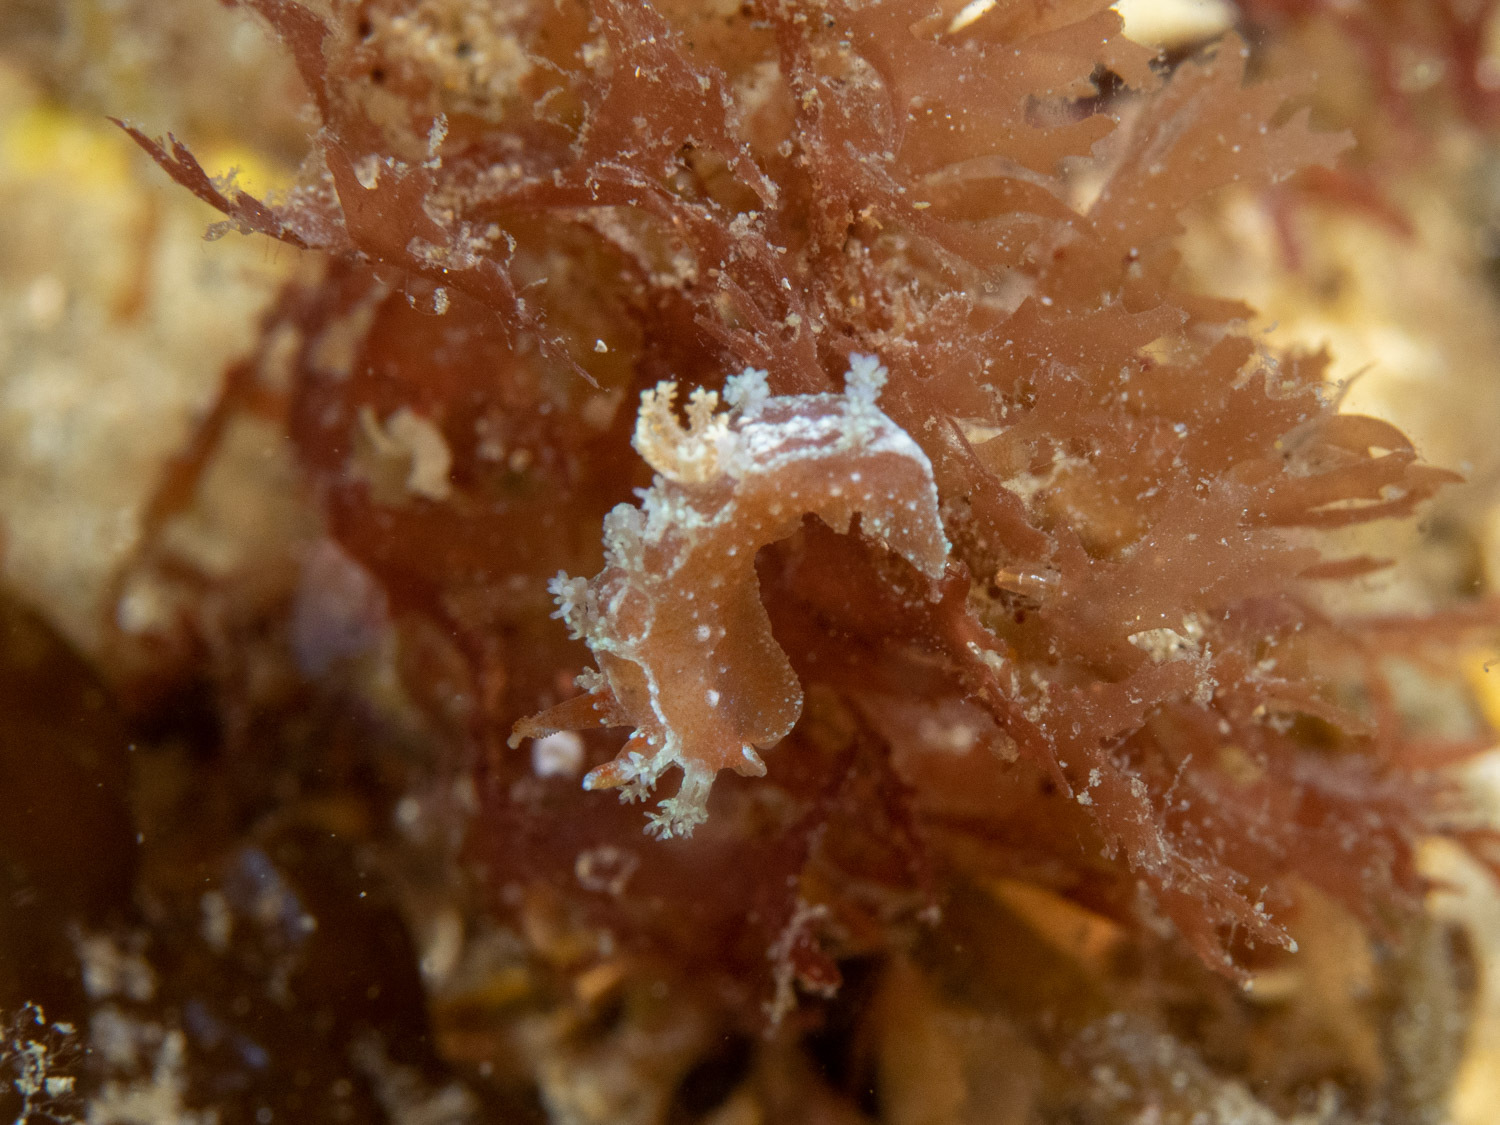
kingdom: Animalia
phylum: Mollusca
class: Gastropoda
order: Nudibranchia
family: Polyceridae
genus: Kaloplocamus
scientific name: Kaloplocamus ramosus
